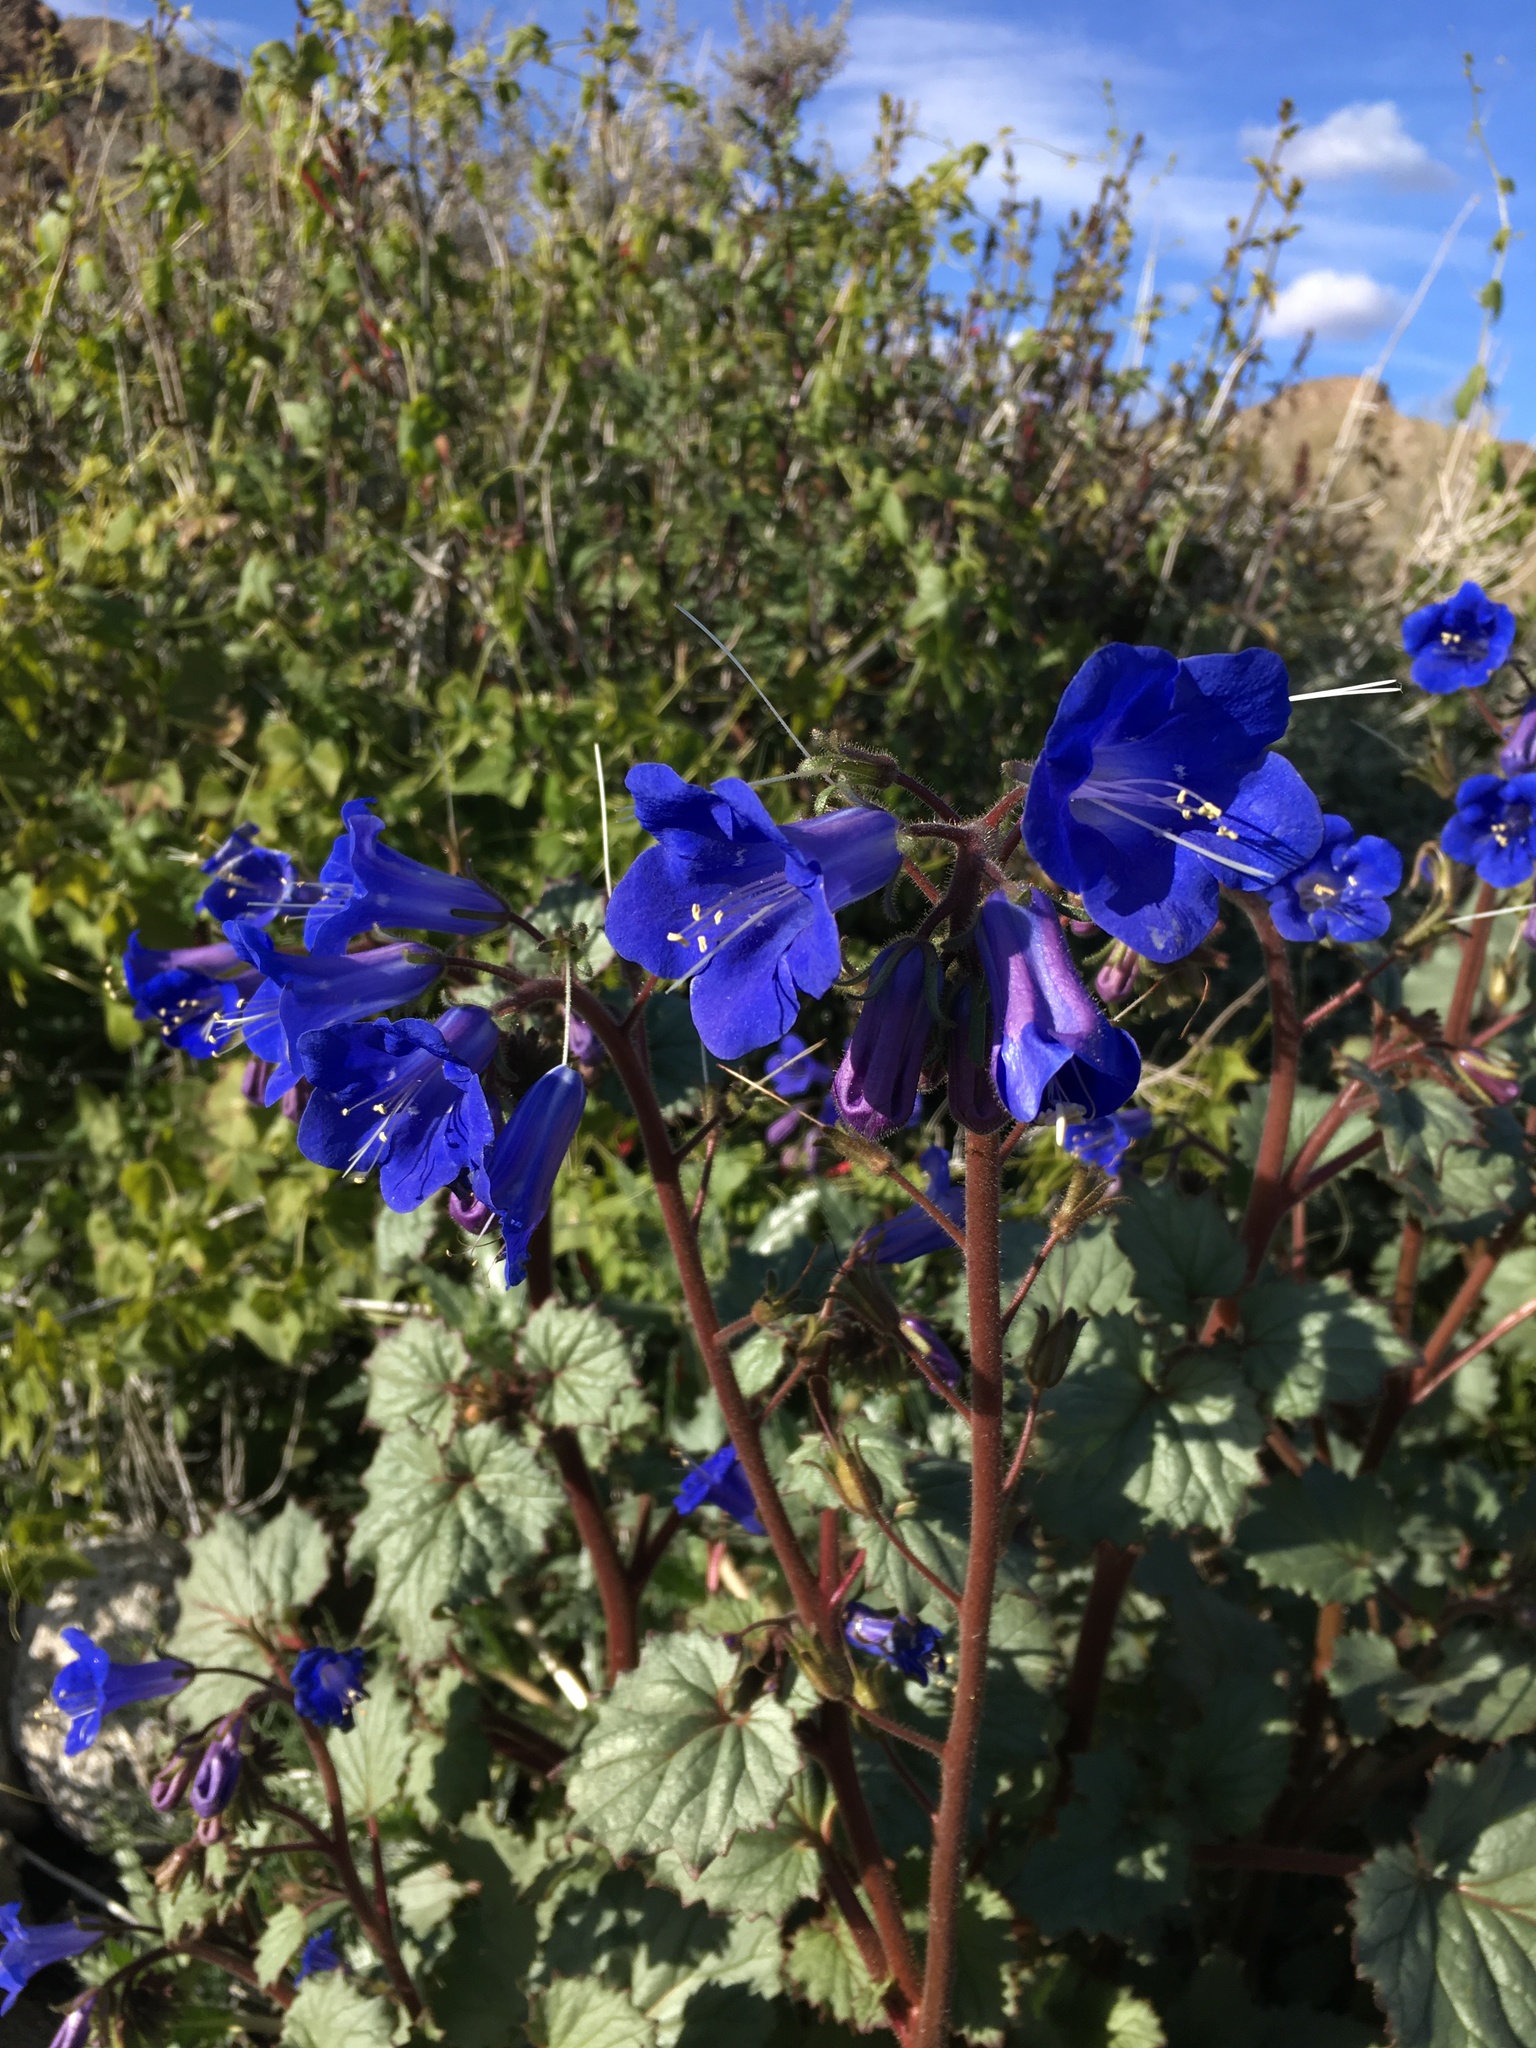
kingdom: Plantae
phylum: Tracheophyta
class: Magnoliopsida
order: Boraginales
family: Hydrophyllaceae
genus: Phacelia
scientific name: Phacelia campanularia
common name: California bluebell
